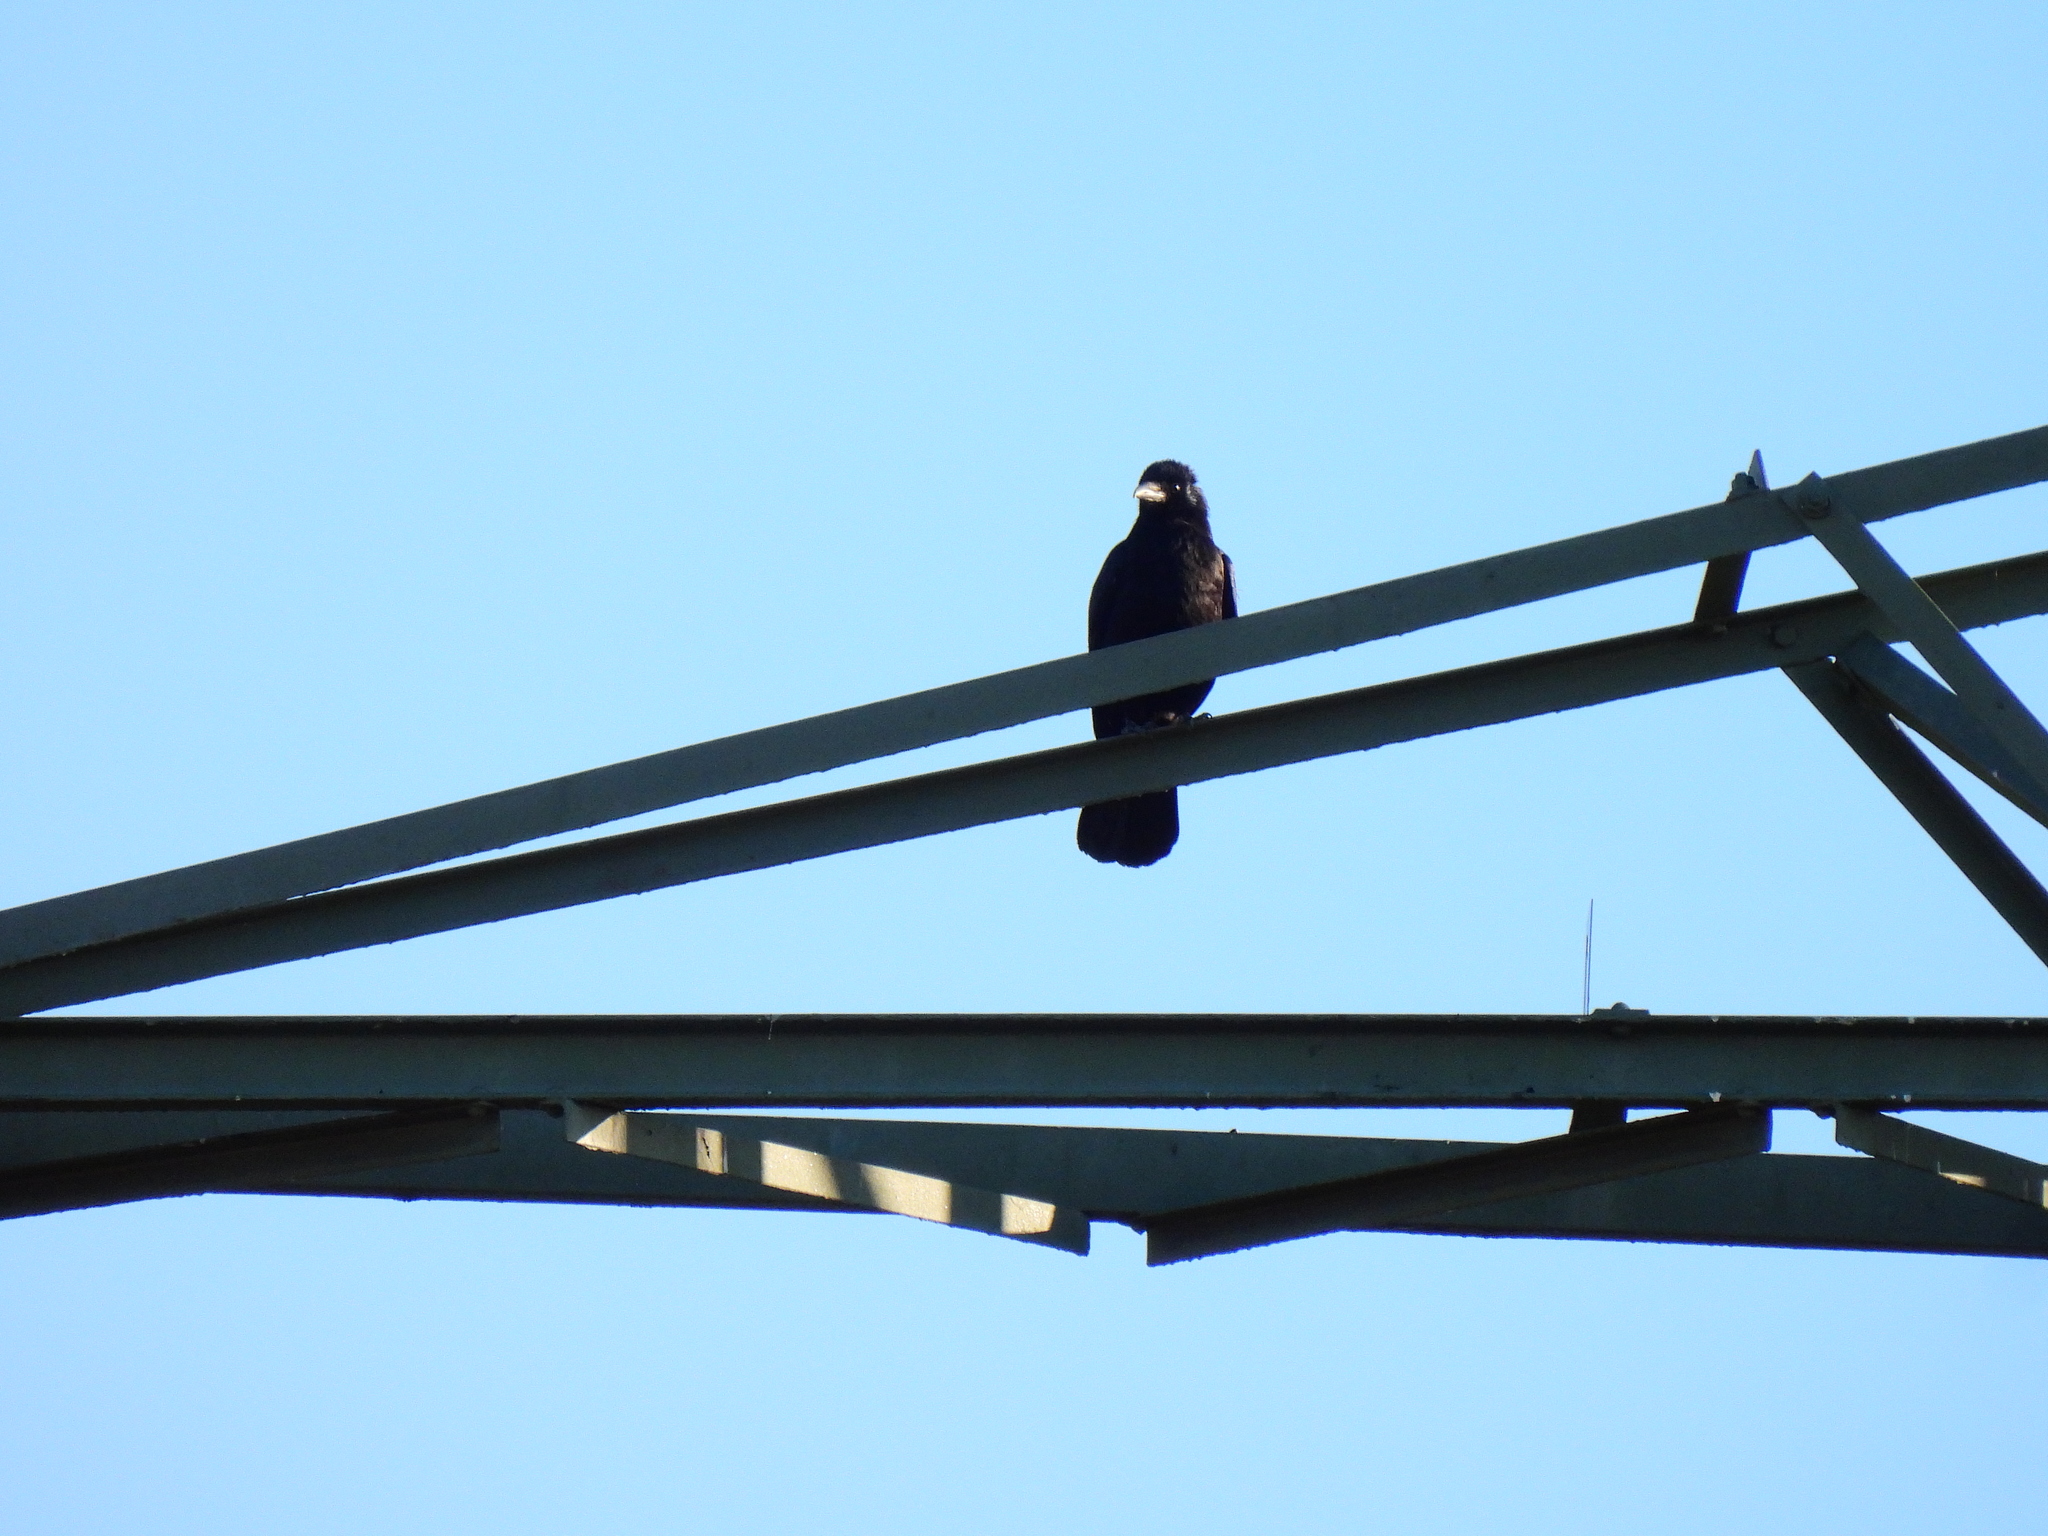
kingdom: Animalia
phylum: Chordata
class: Aves
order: Passeriformes
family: Corvidae
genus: Corvus
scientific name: Corvus corone
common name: Carrion crow
